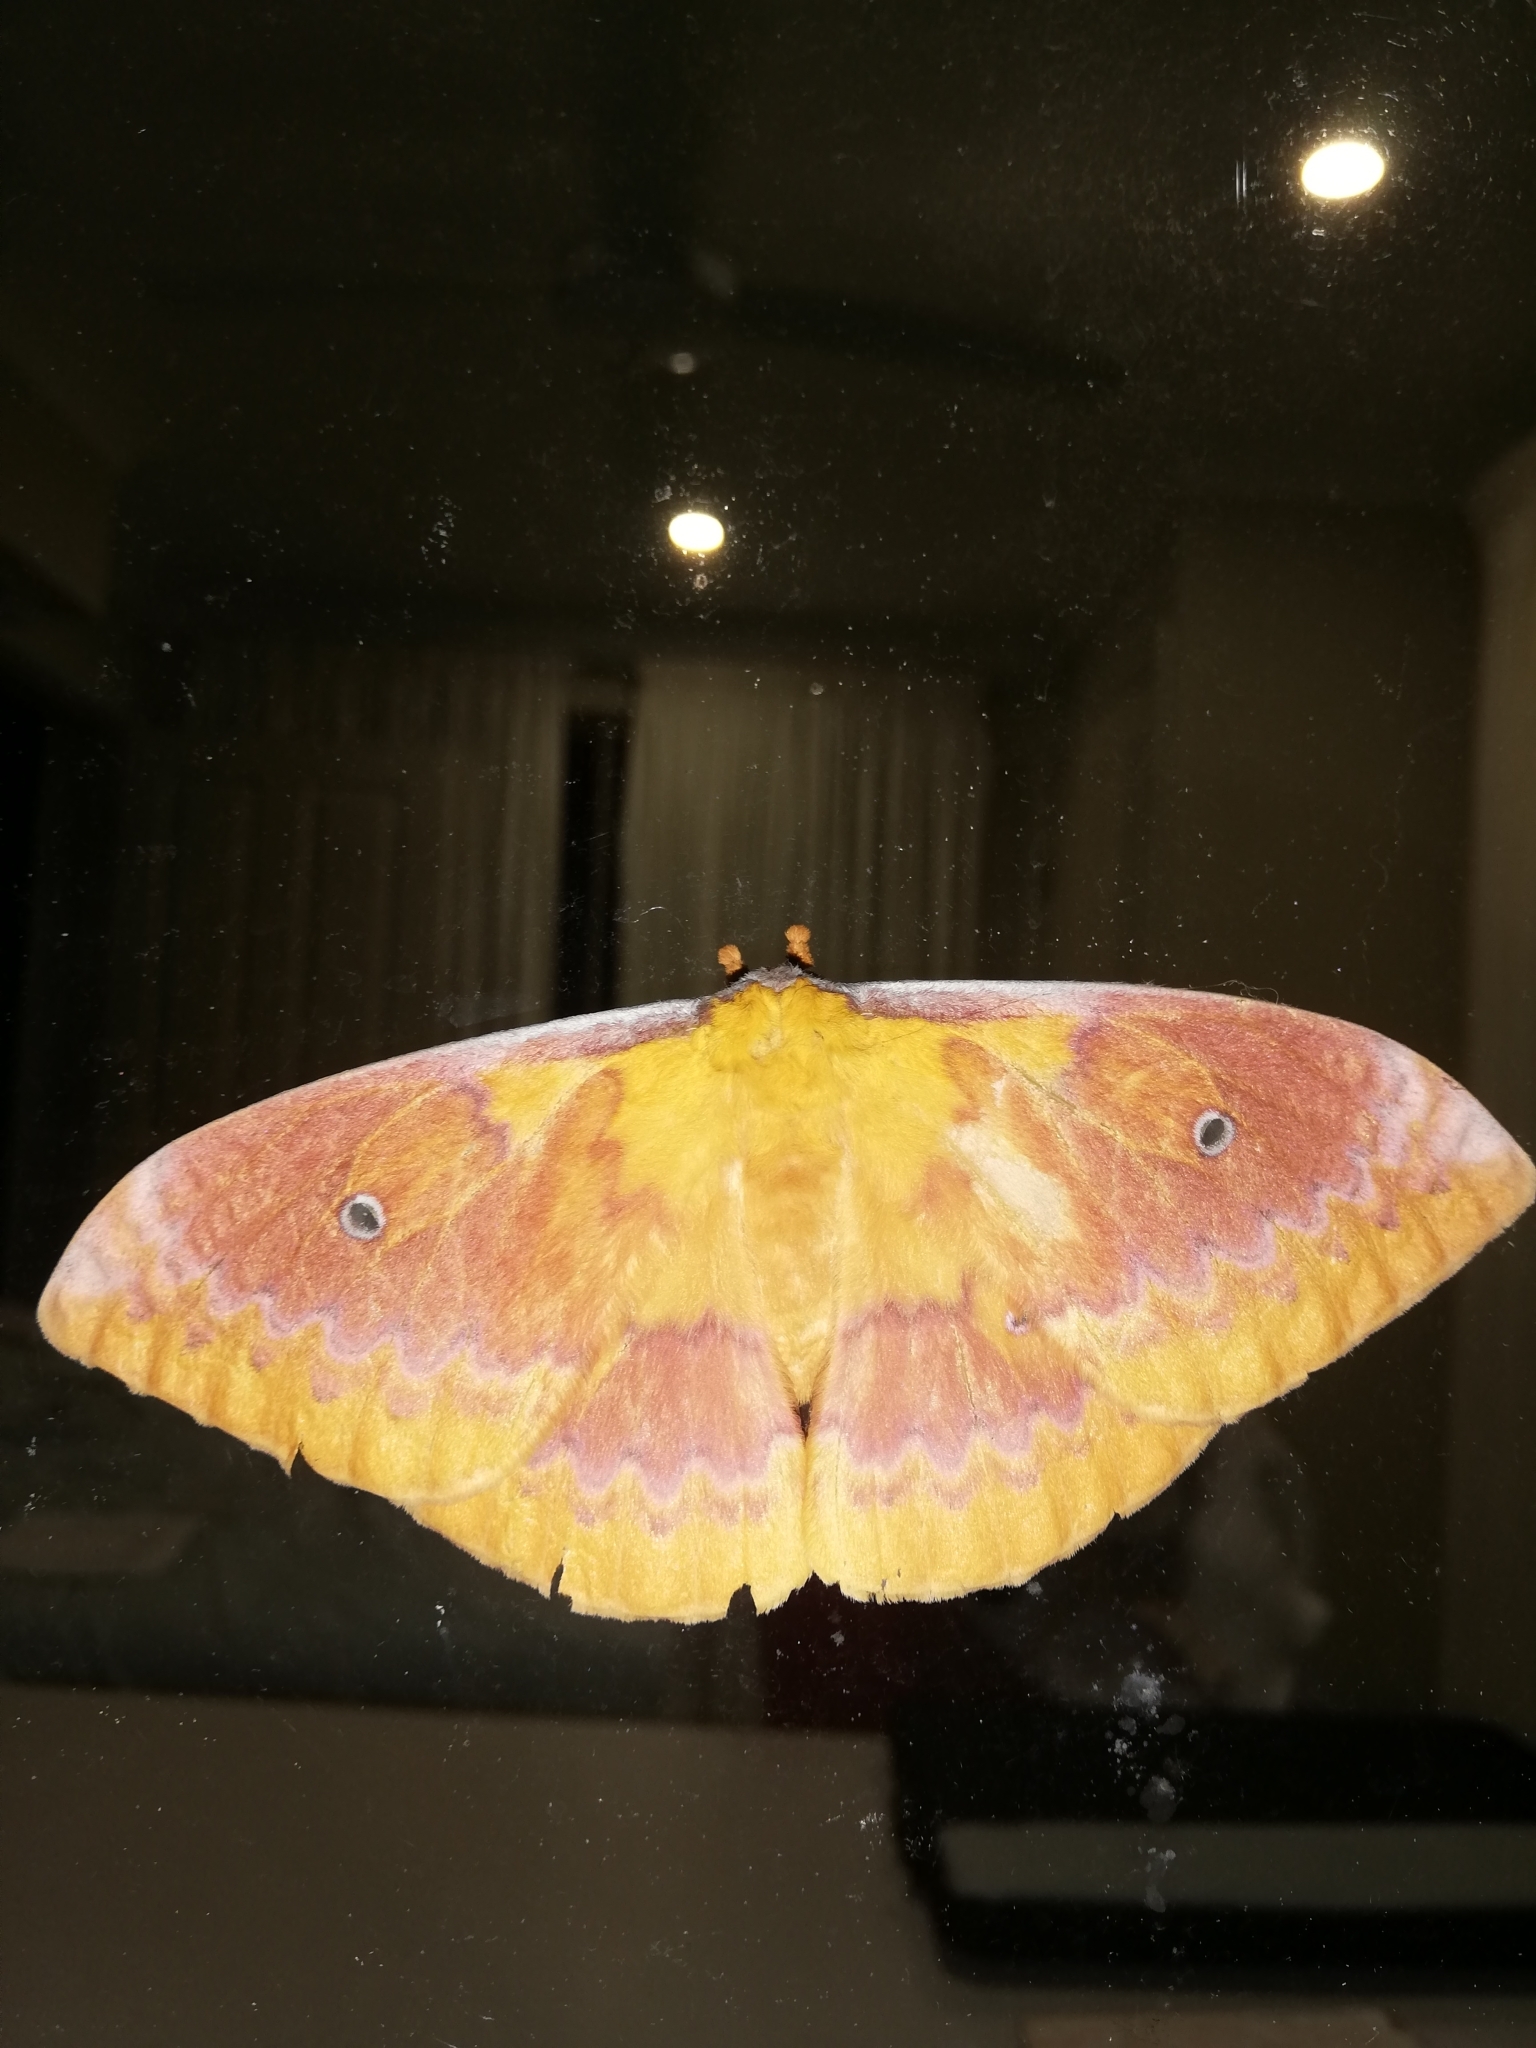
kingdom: Animalia
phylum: Arthropoda
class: Insecta
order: Lepidoptera
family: Saturniidae
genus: Syntherata
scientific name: Syntherata escarlata
